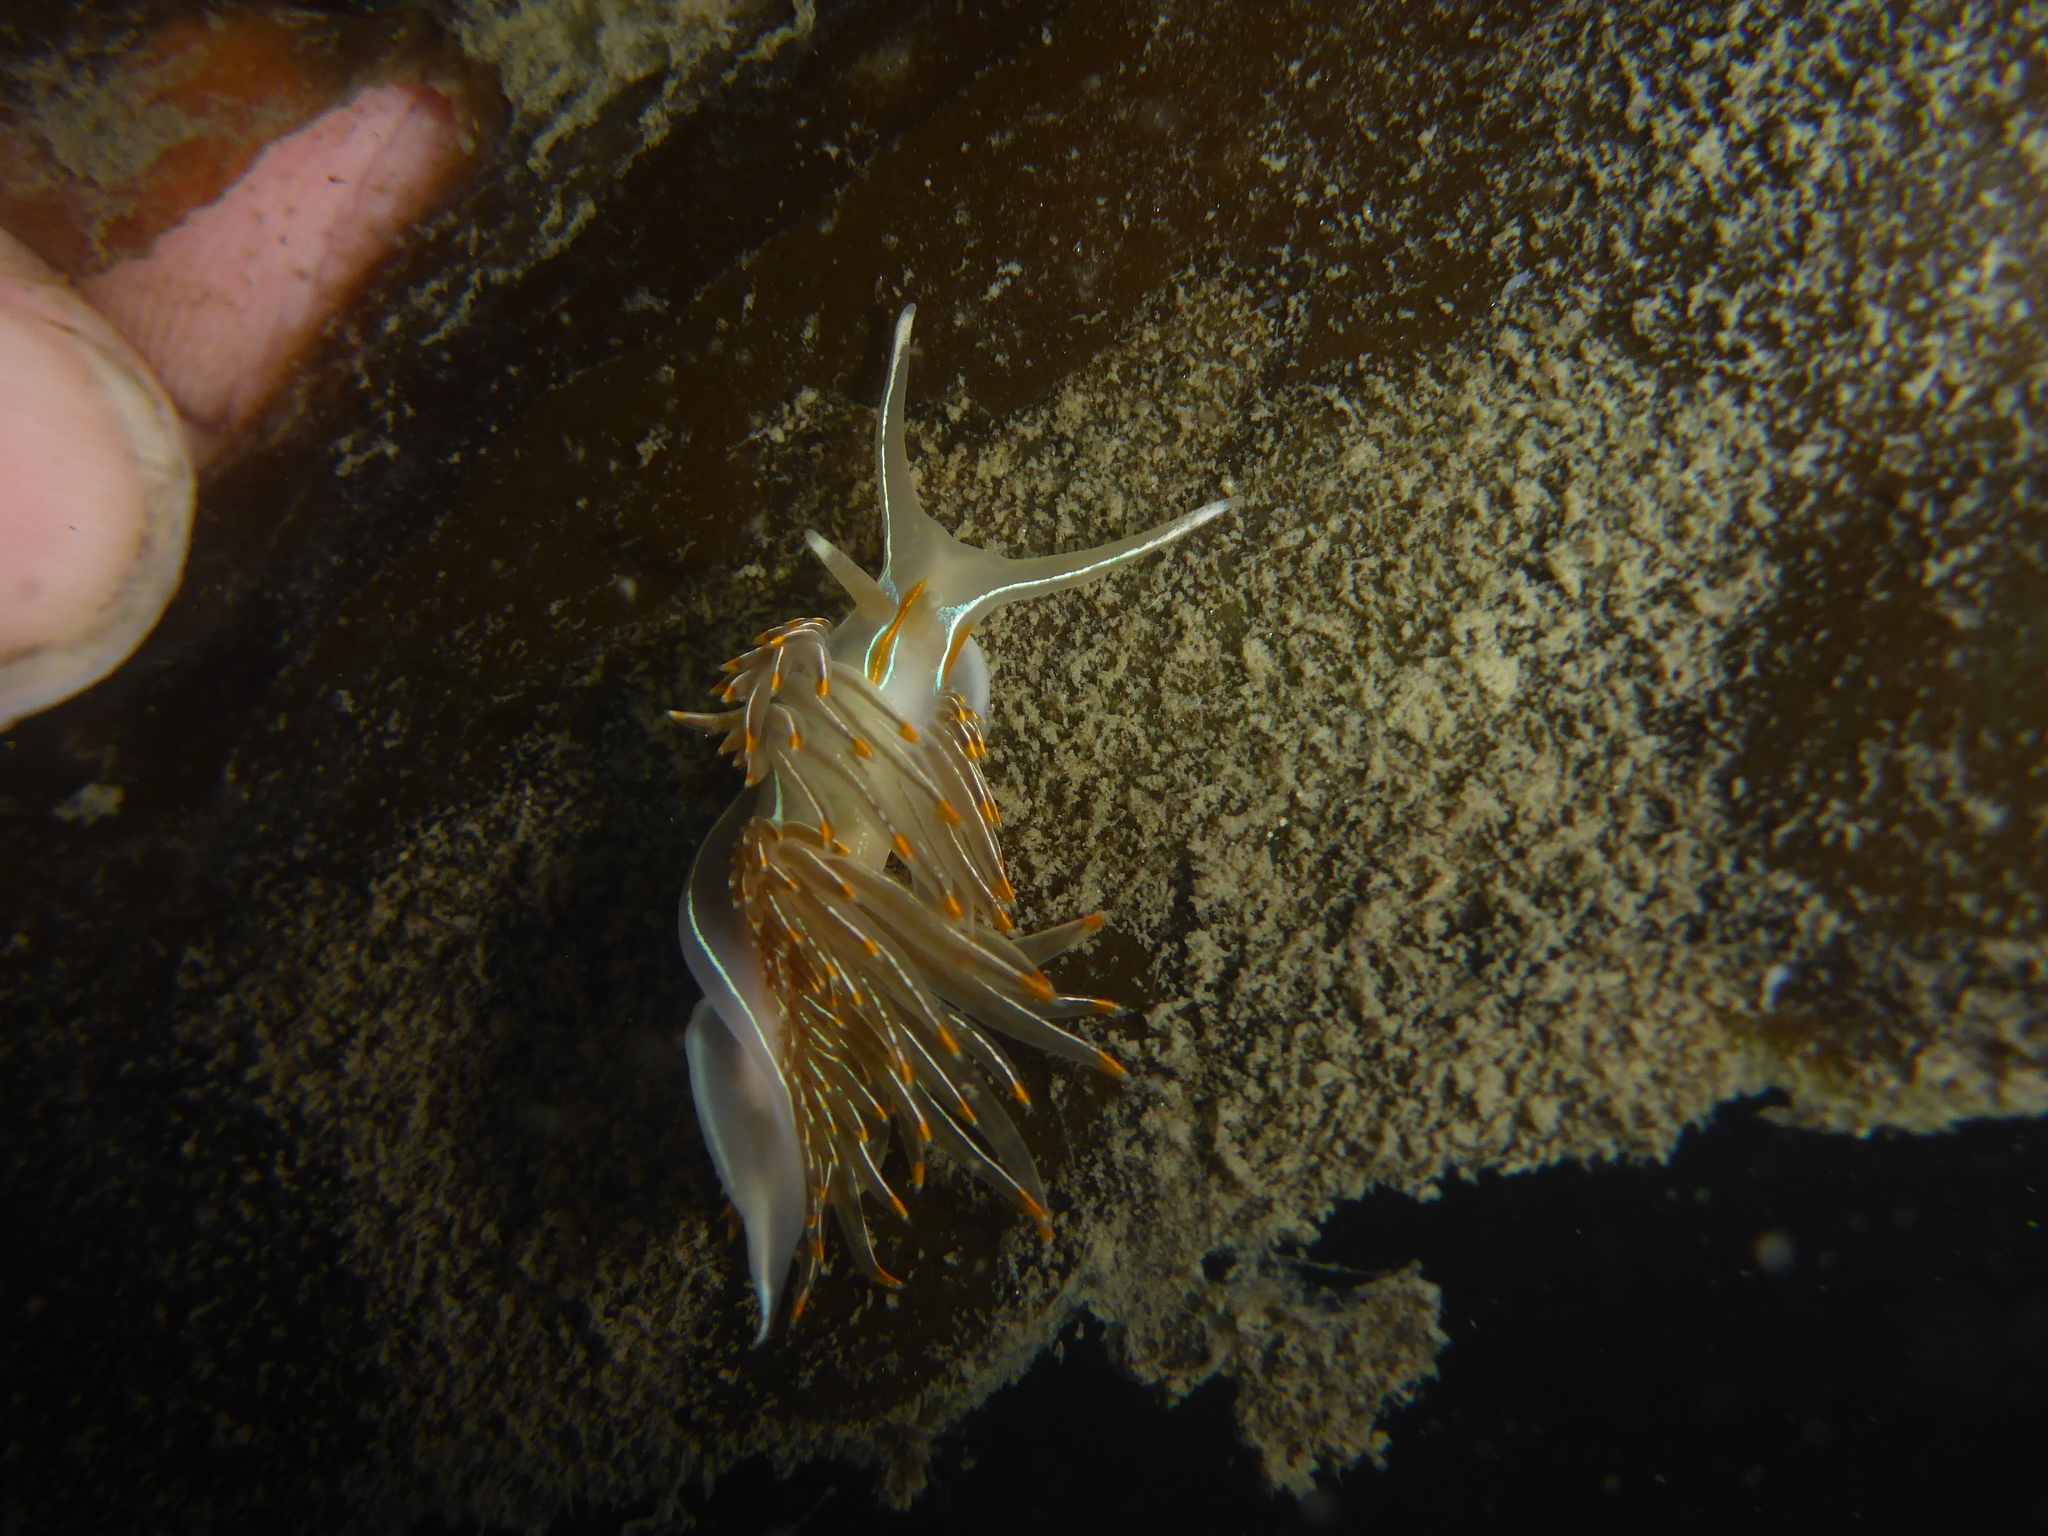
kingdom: Animalia
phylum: Mollusca
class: Gastropoda
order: Nudibranchia
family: Myrrhinidae
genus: Hermissenda
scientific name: Hermissenda crassicornis
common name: Hermissenda
